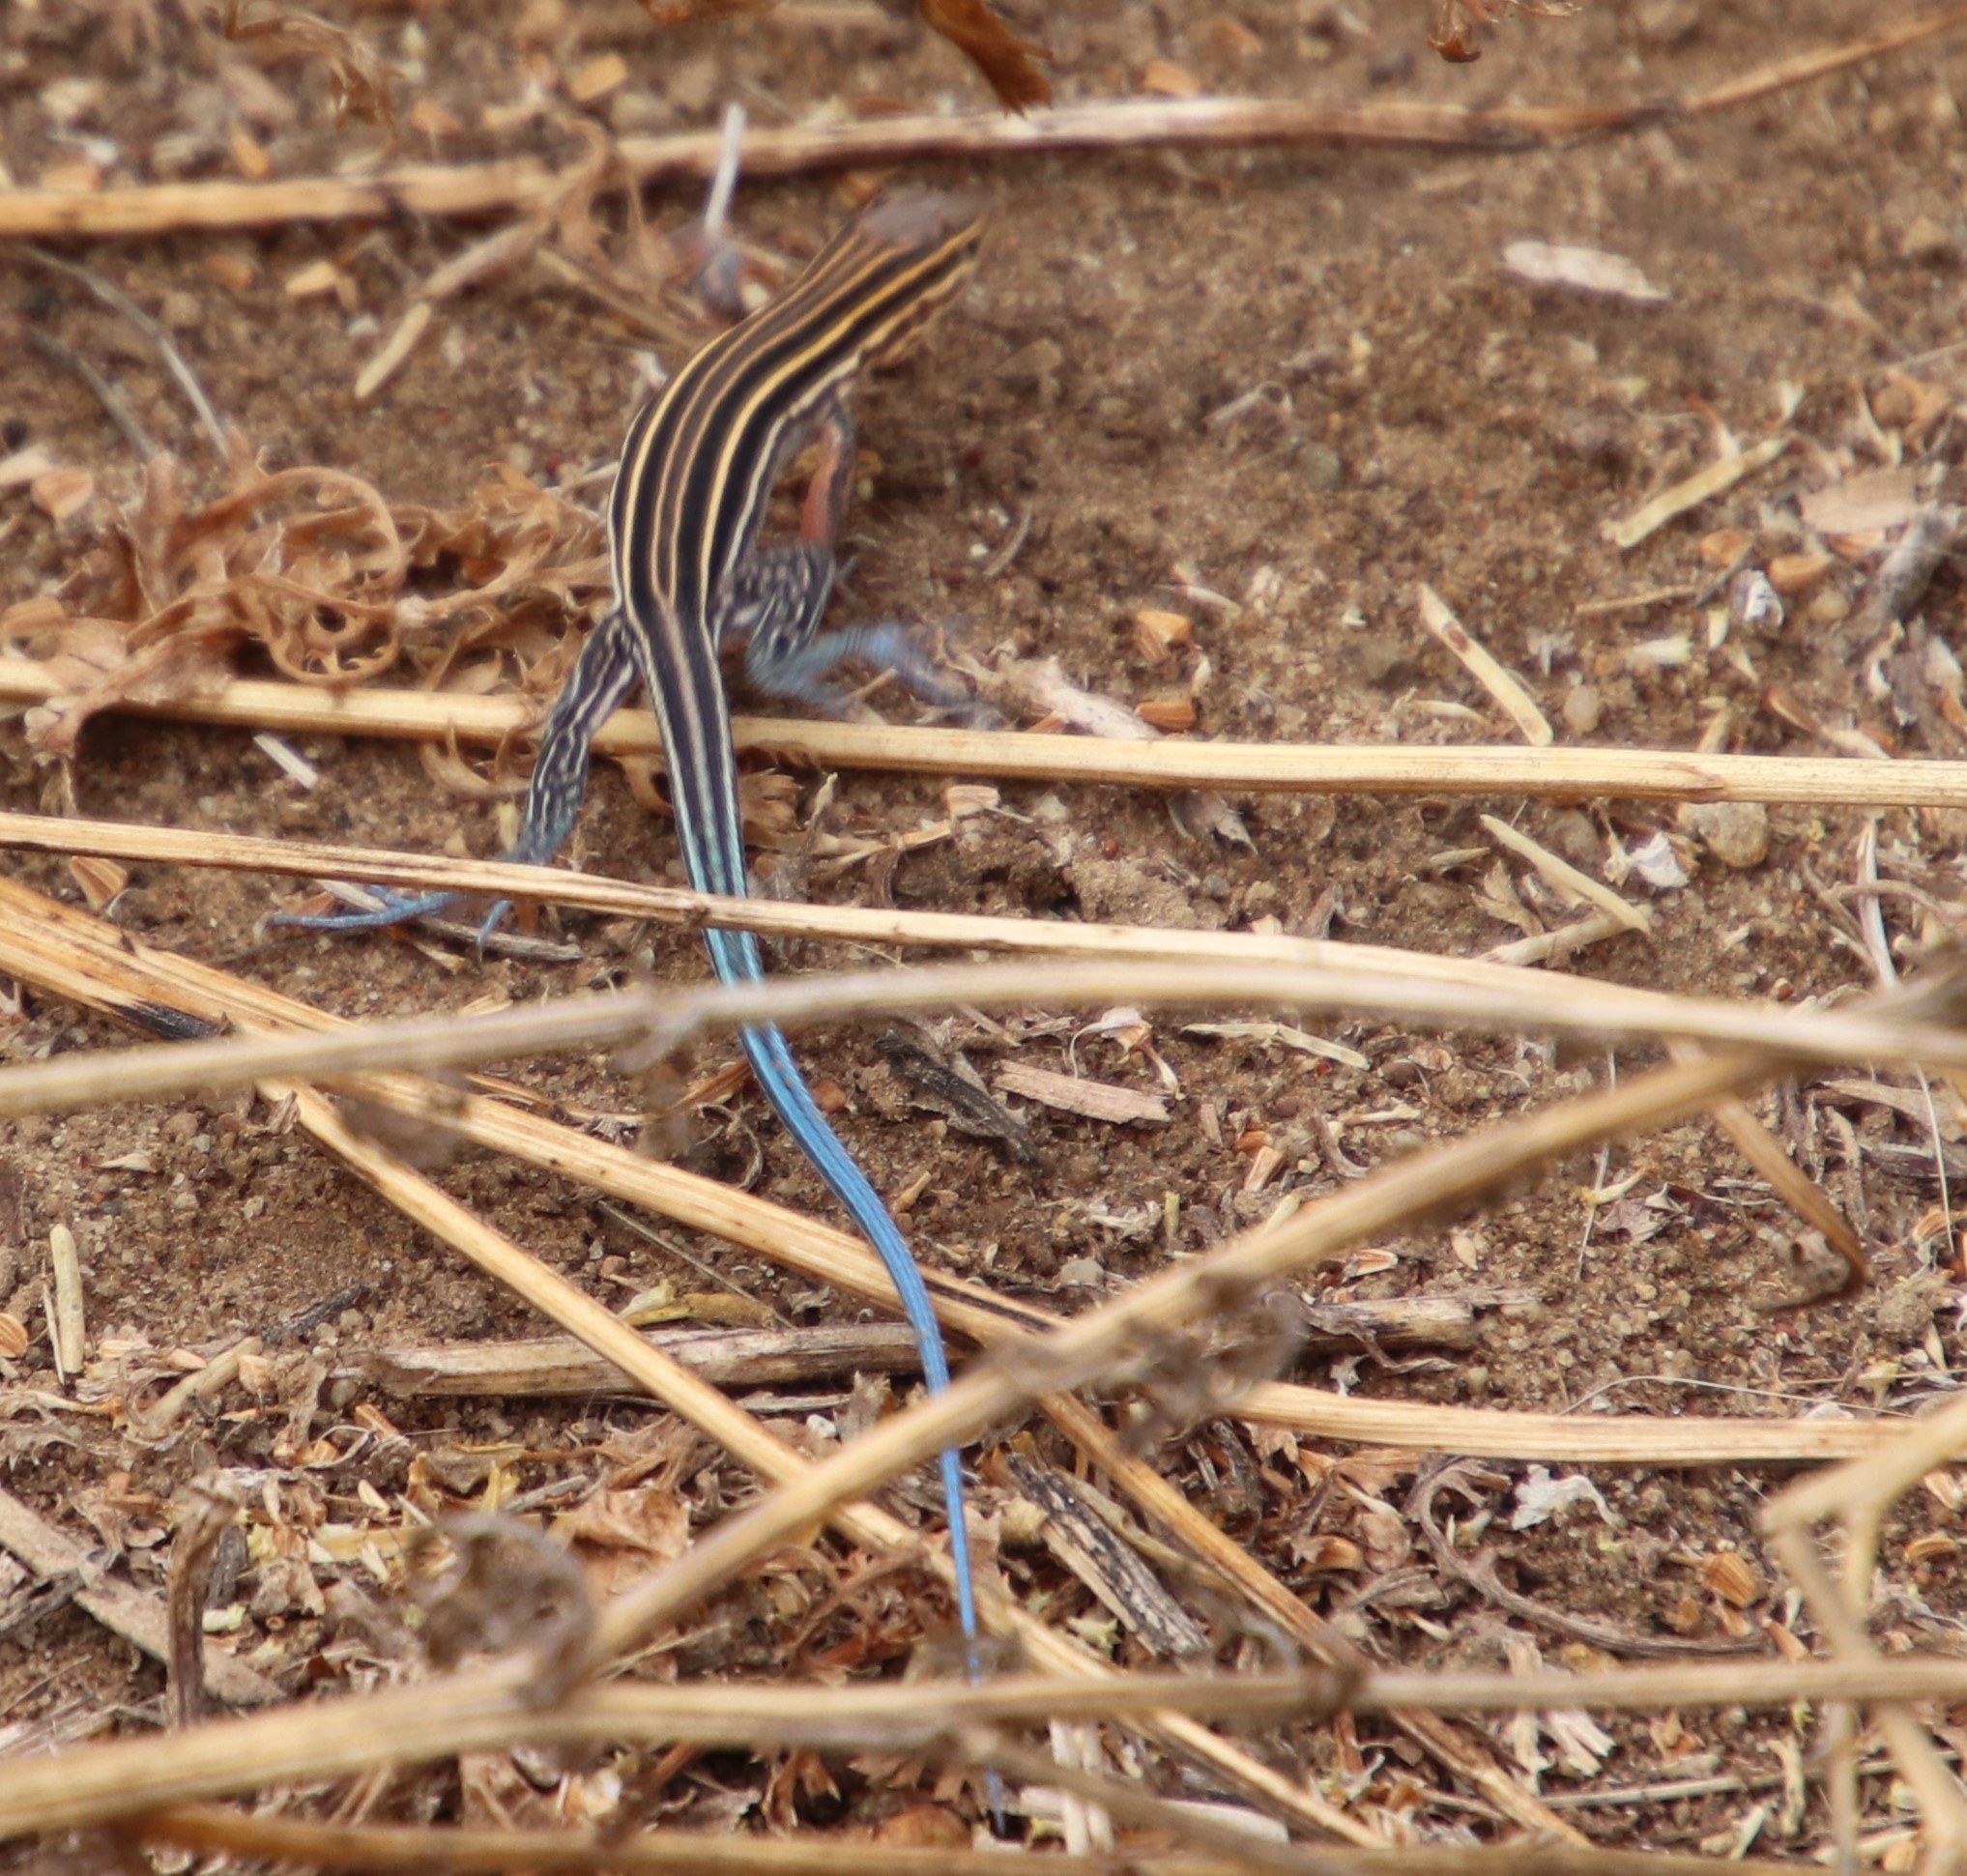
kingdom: Animalia
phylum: Chordata
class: Squamata
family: Teiidae
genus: Aspidoscelis
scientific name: Aspidoscelis hyperythrus
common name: Orange-throated race-runner
